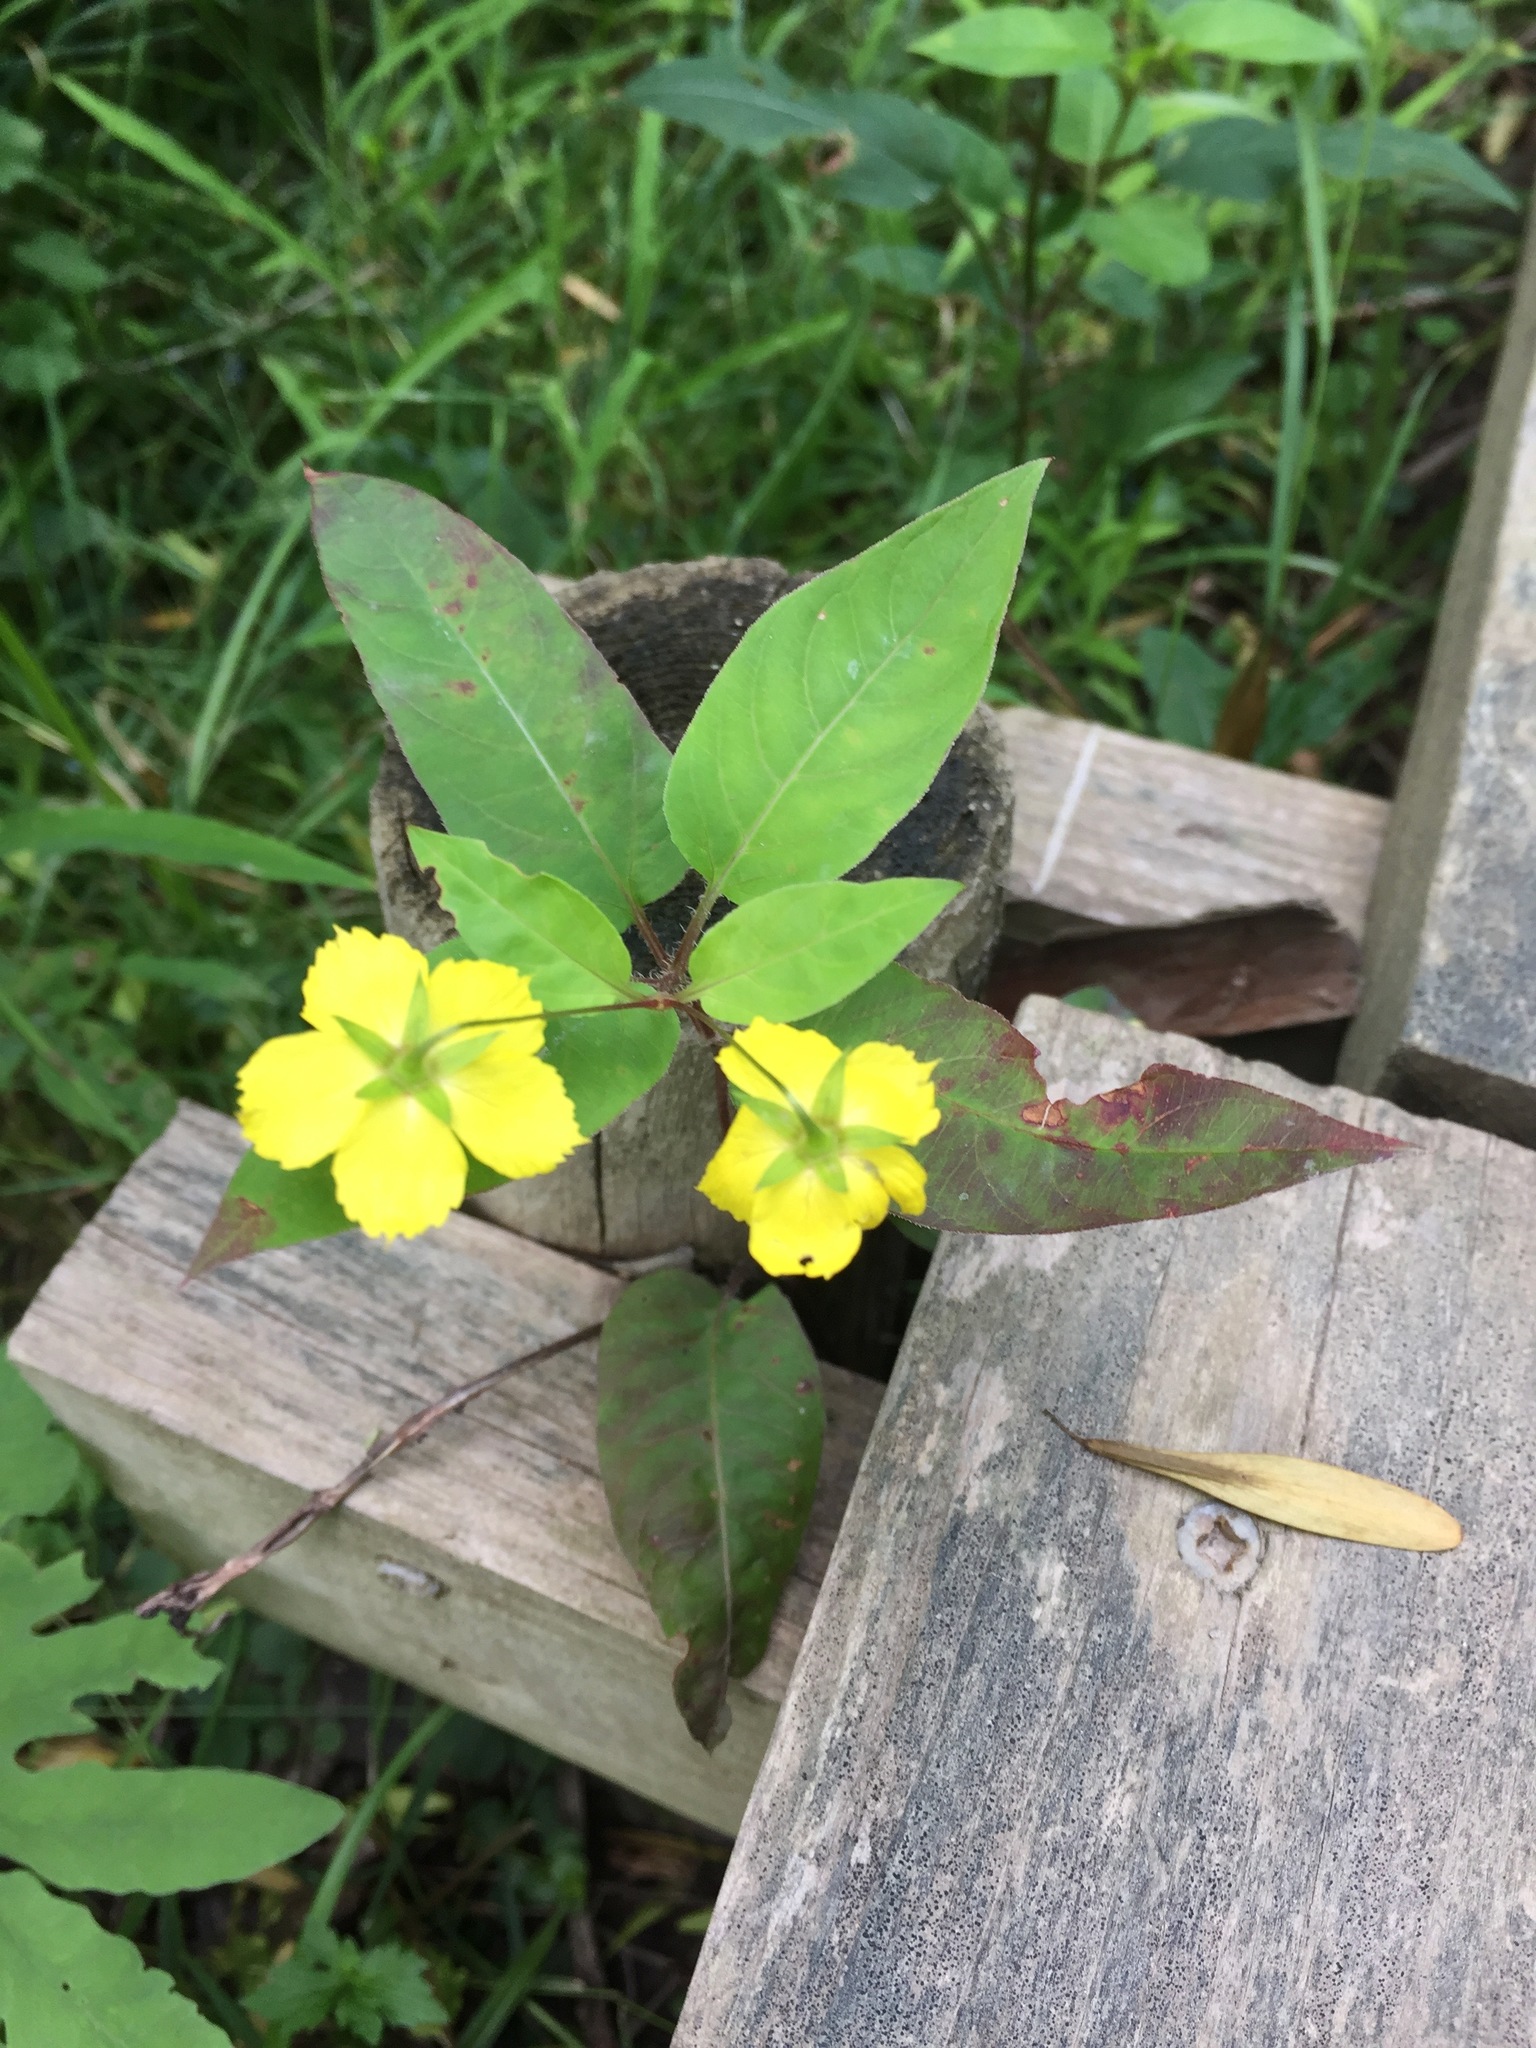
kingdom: Plantae
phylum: Tracheophyta
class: Magnoliopsida
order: Ericales
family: Primulaceae
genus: Lysimachia
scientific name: Lysimachia ciliata
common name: Fringed loosestrife
